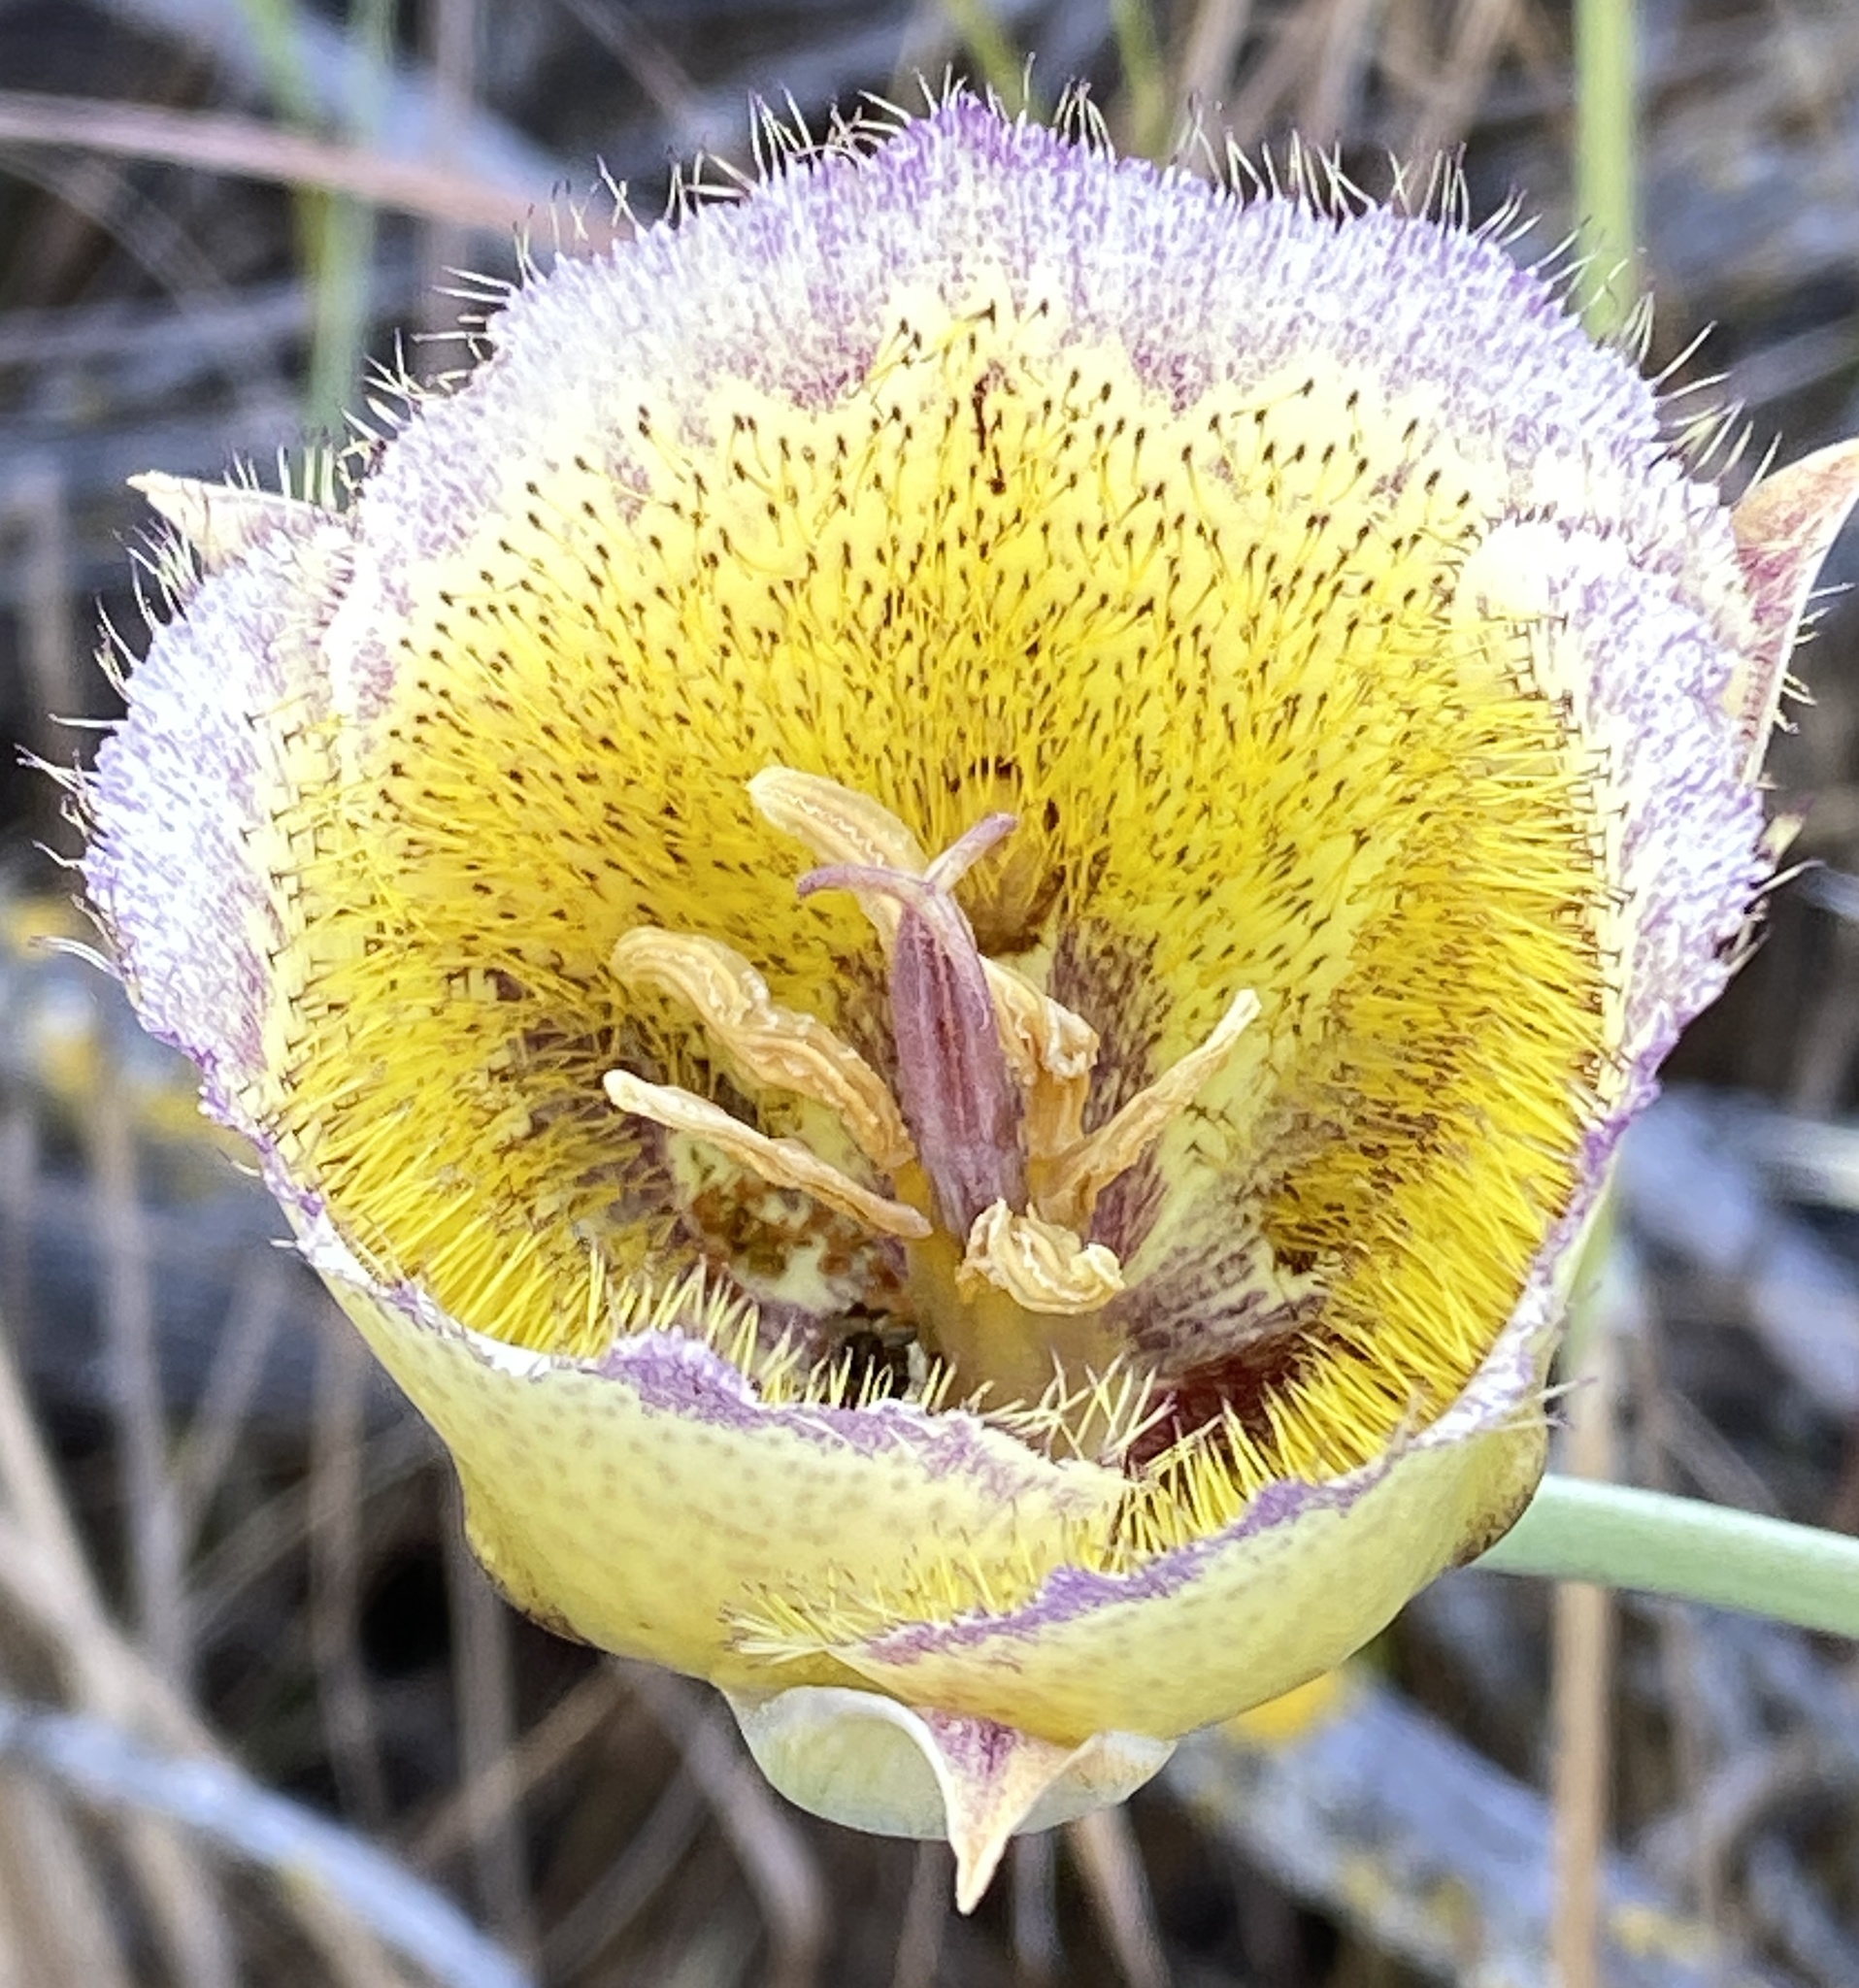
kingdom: Plantae
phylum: Tracheophyta
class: Liliopsida
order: Liliales
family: Liliaceae
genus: Calochortus
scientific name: Calochortus weedii
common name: Weed's mariposa-lily
